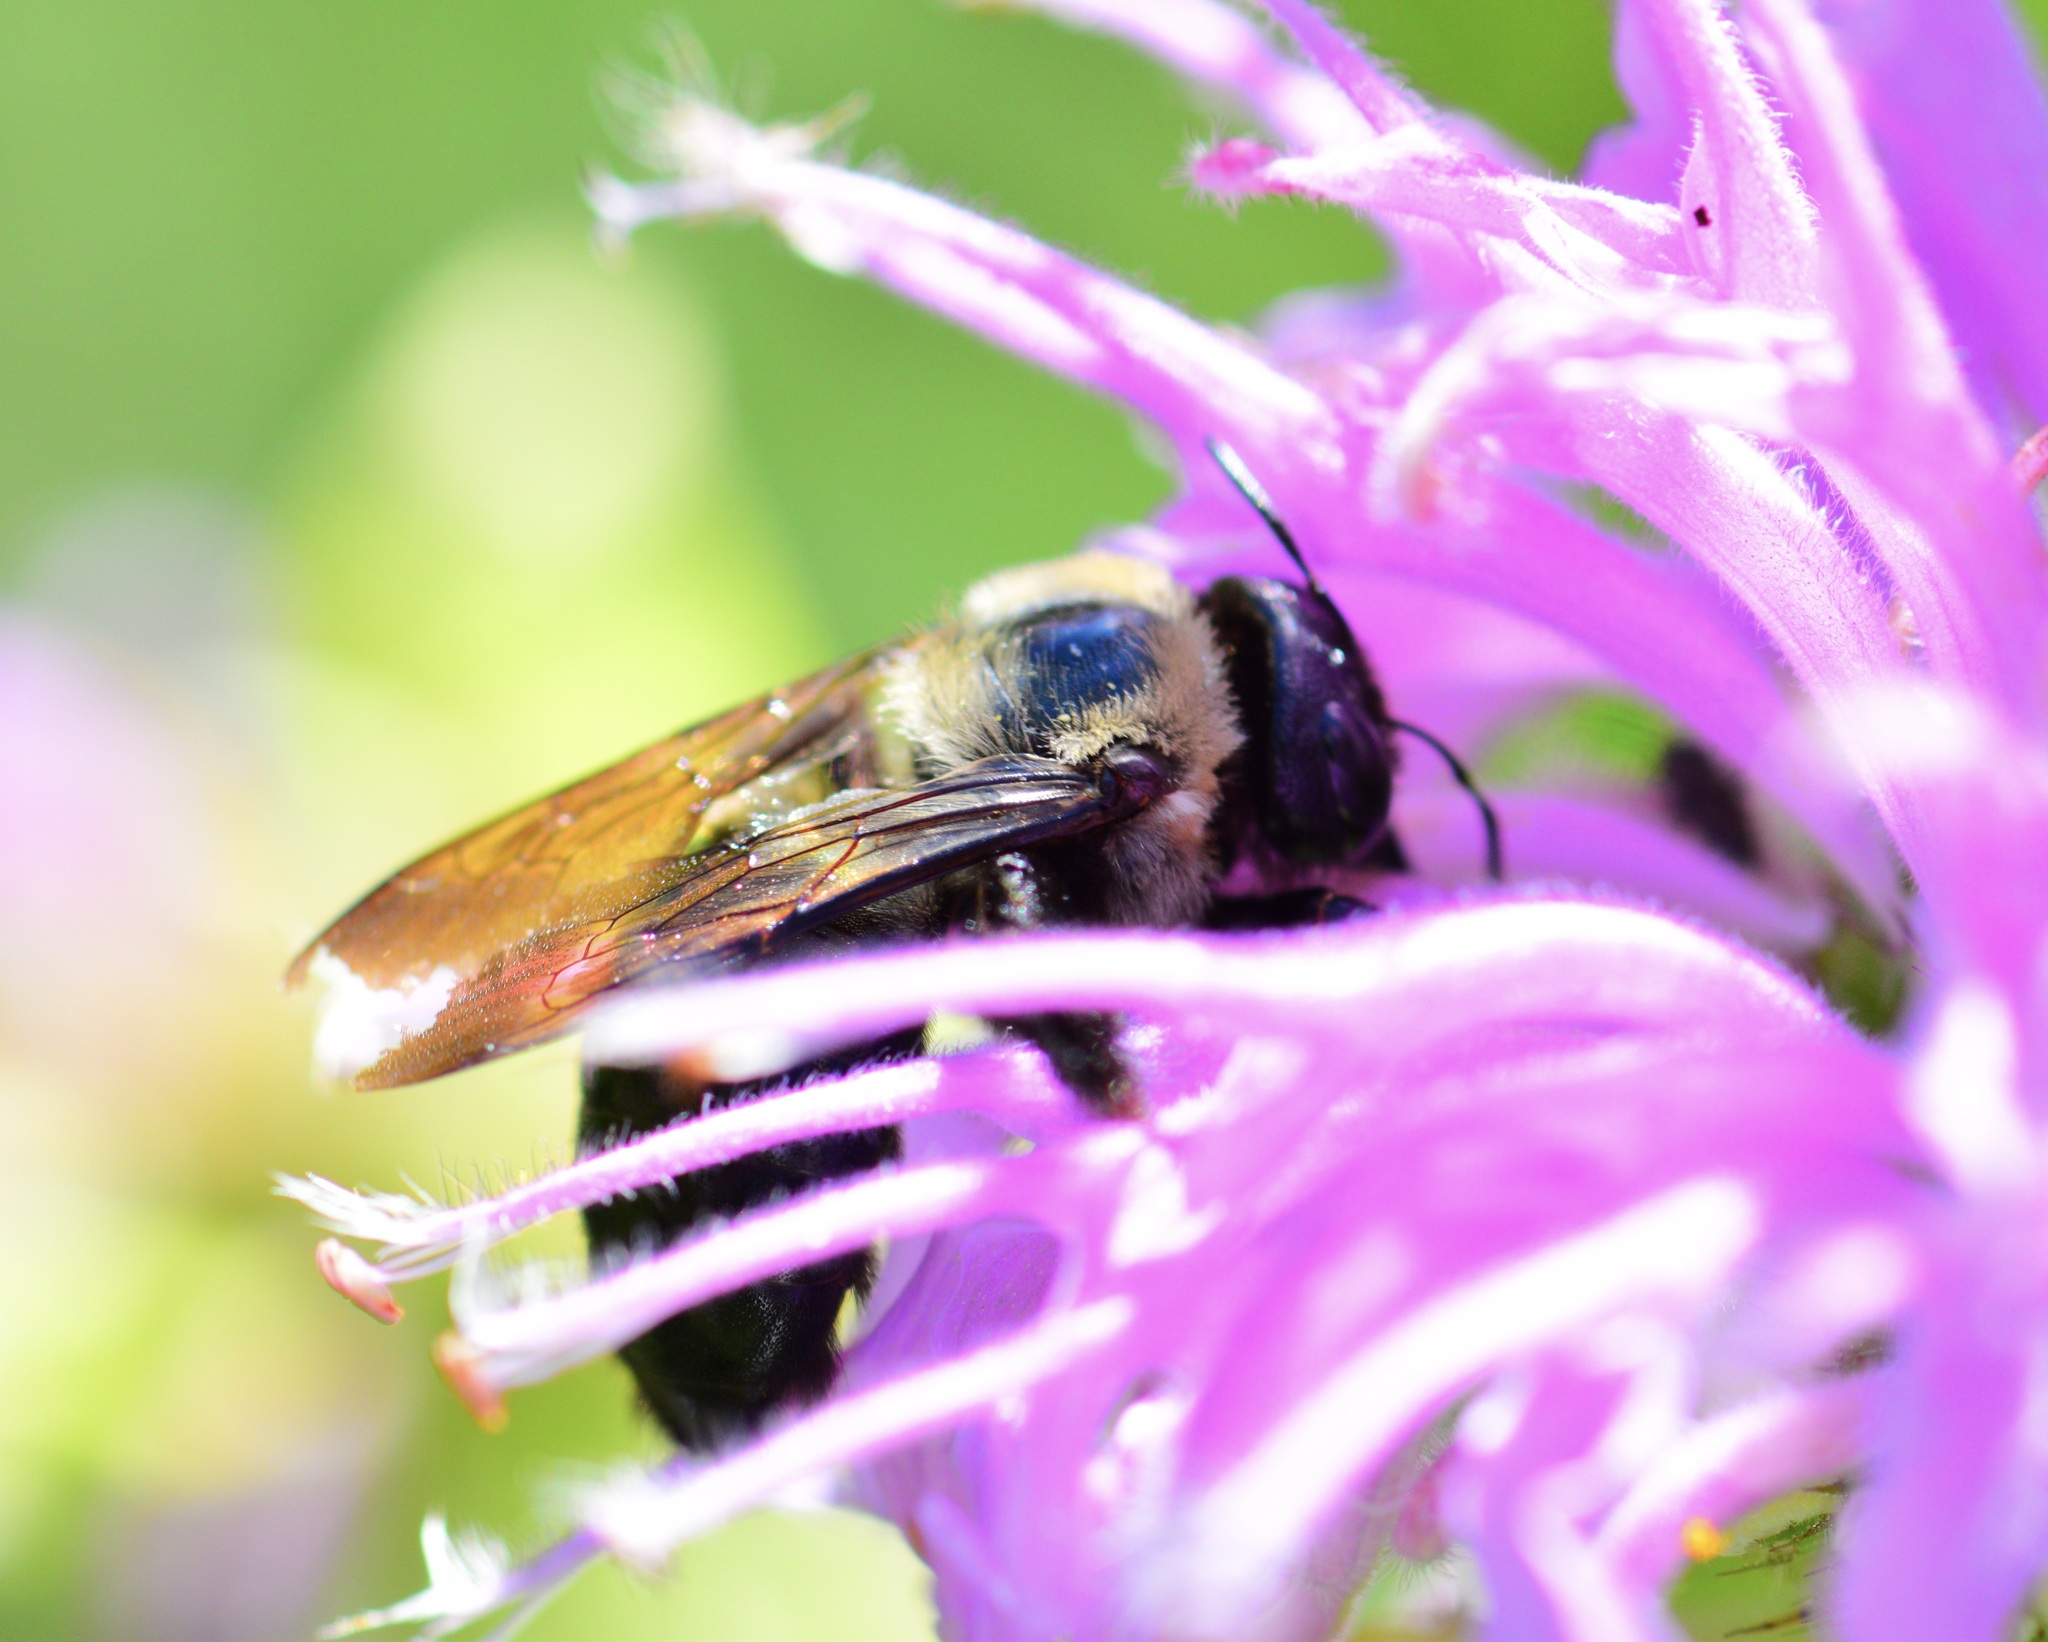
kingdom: Animalia
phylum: Arthropoda
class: Insecta
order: Hymenoptera
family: Apidae
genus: Xylocopa
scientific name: Xylocopa virginica
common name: Carpenter bee
